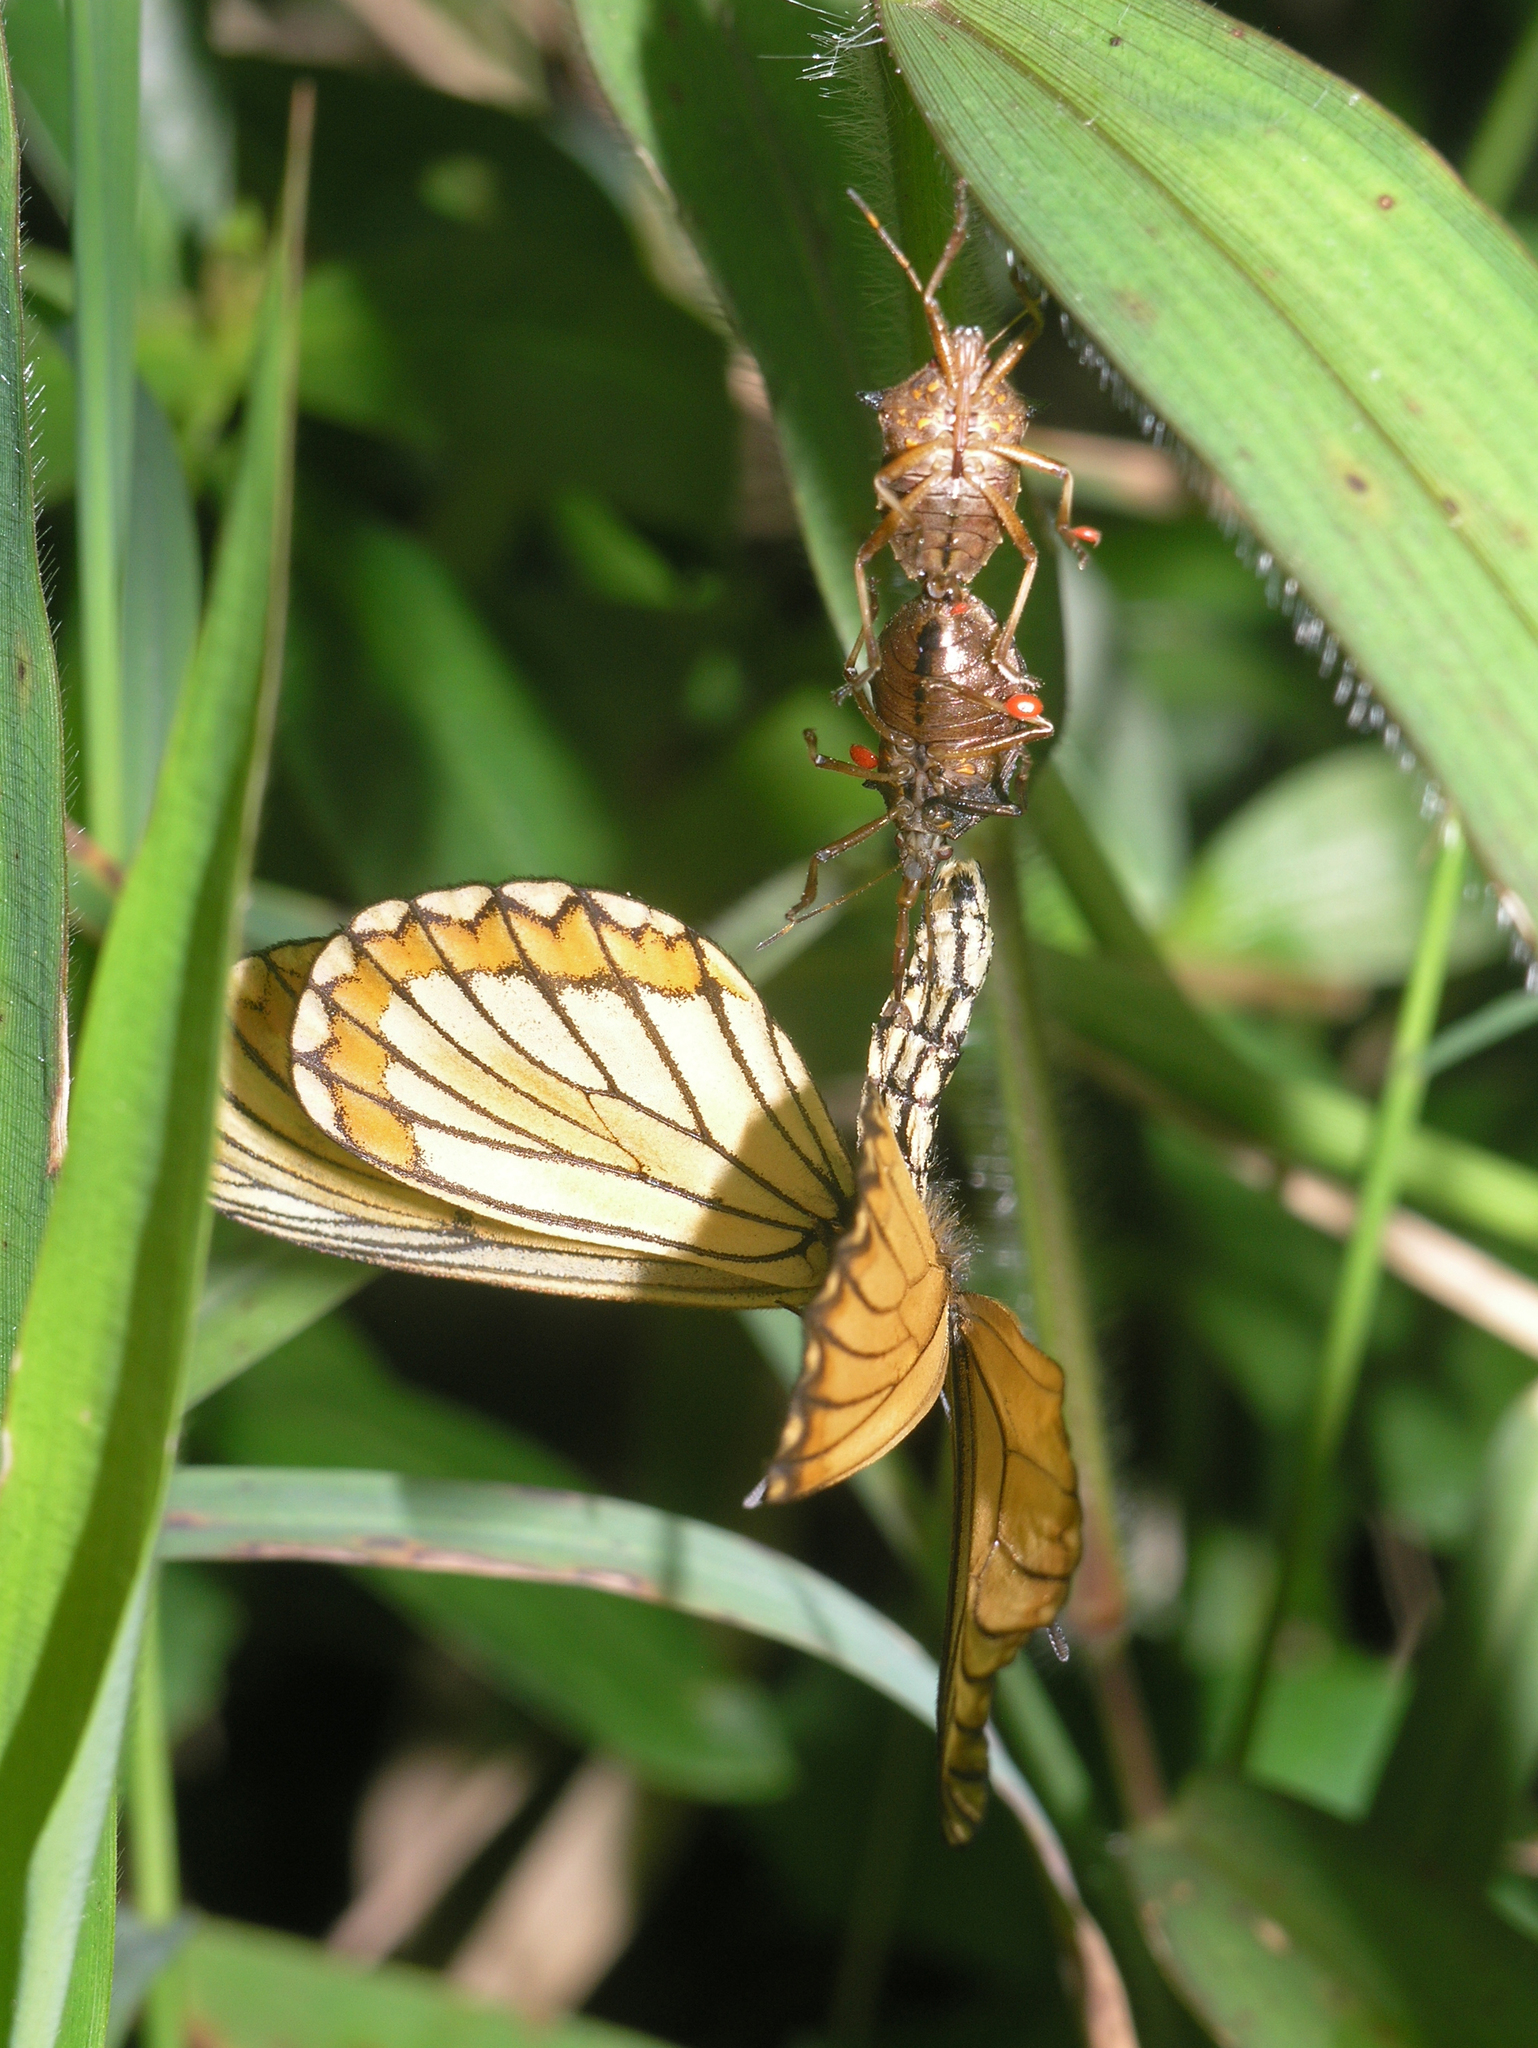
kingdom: Animalia
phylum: Arthropoda
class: Insecta
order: Lepidoptera
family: Nymphalidae
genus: Acraea
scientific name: Acraea Telchinia issoria
